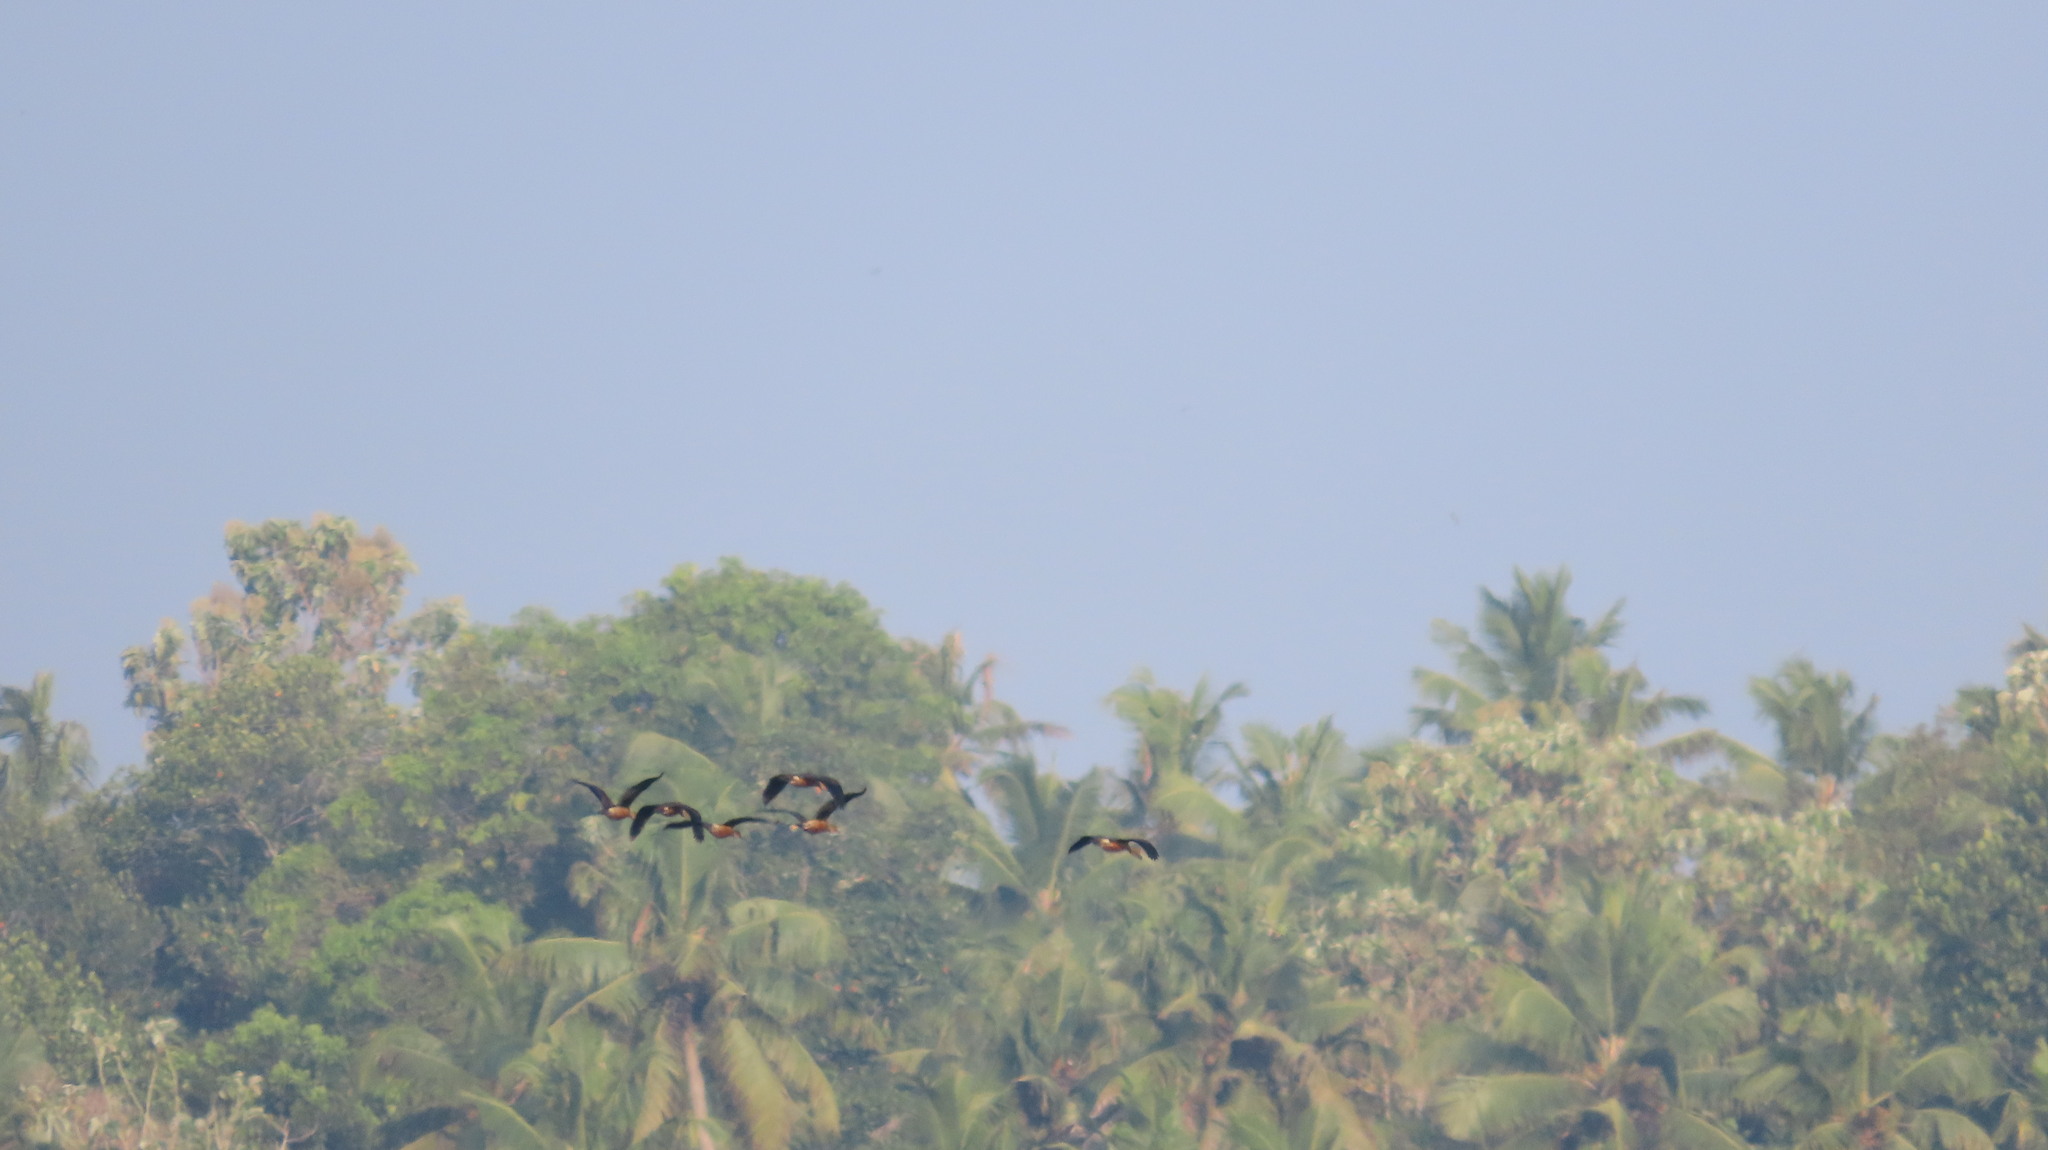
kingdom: Animalia
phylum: Chordata
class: Aves
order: Anseriformes
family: Anatidae
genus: Dendrocygna
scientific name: Dendrocygna javanica
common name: Lesser whistling-duck
